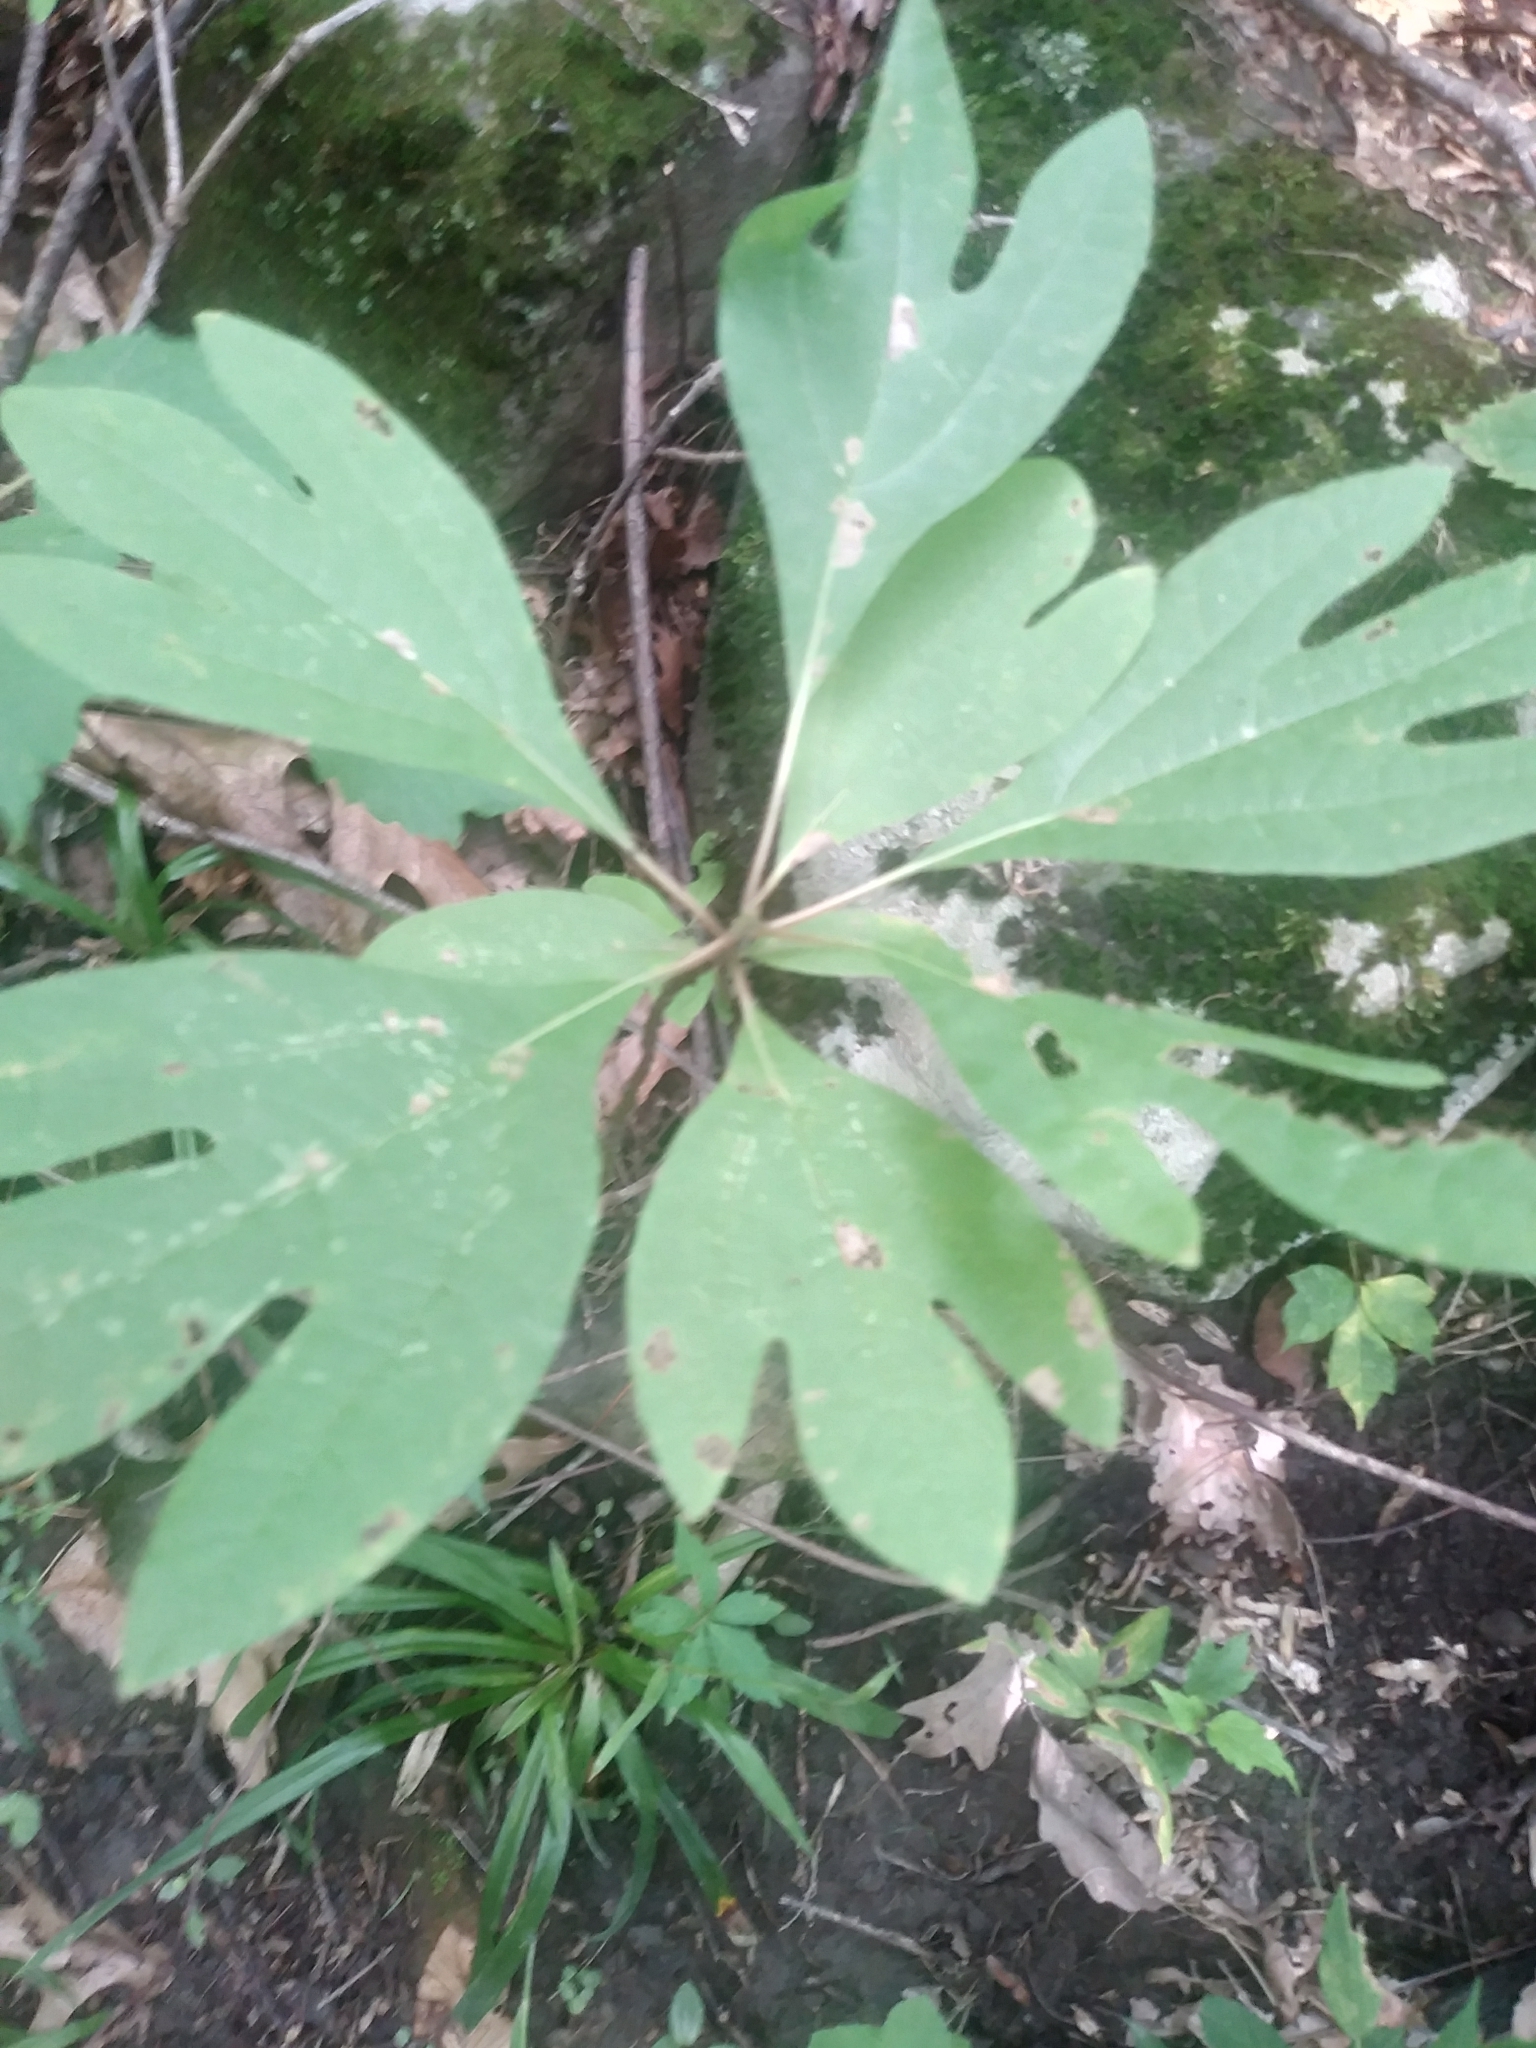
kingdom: Plantae
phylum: Tracheophyta
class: Magnoliopsida
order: Laurales
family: Lauraceae
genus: Sassafras
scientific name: Sassafras albidum
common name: Sassafras
